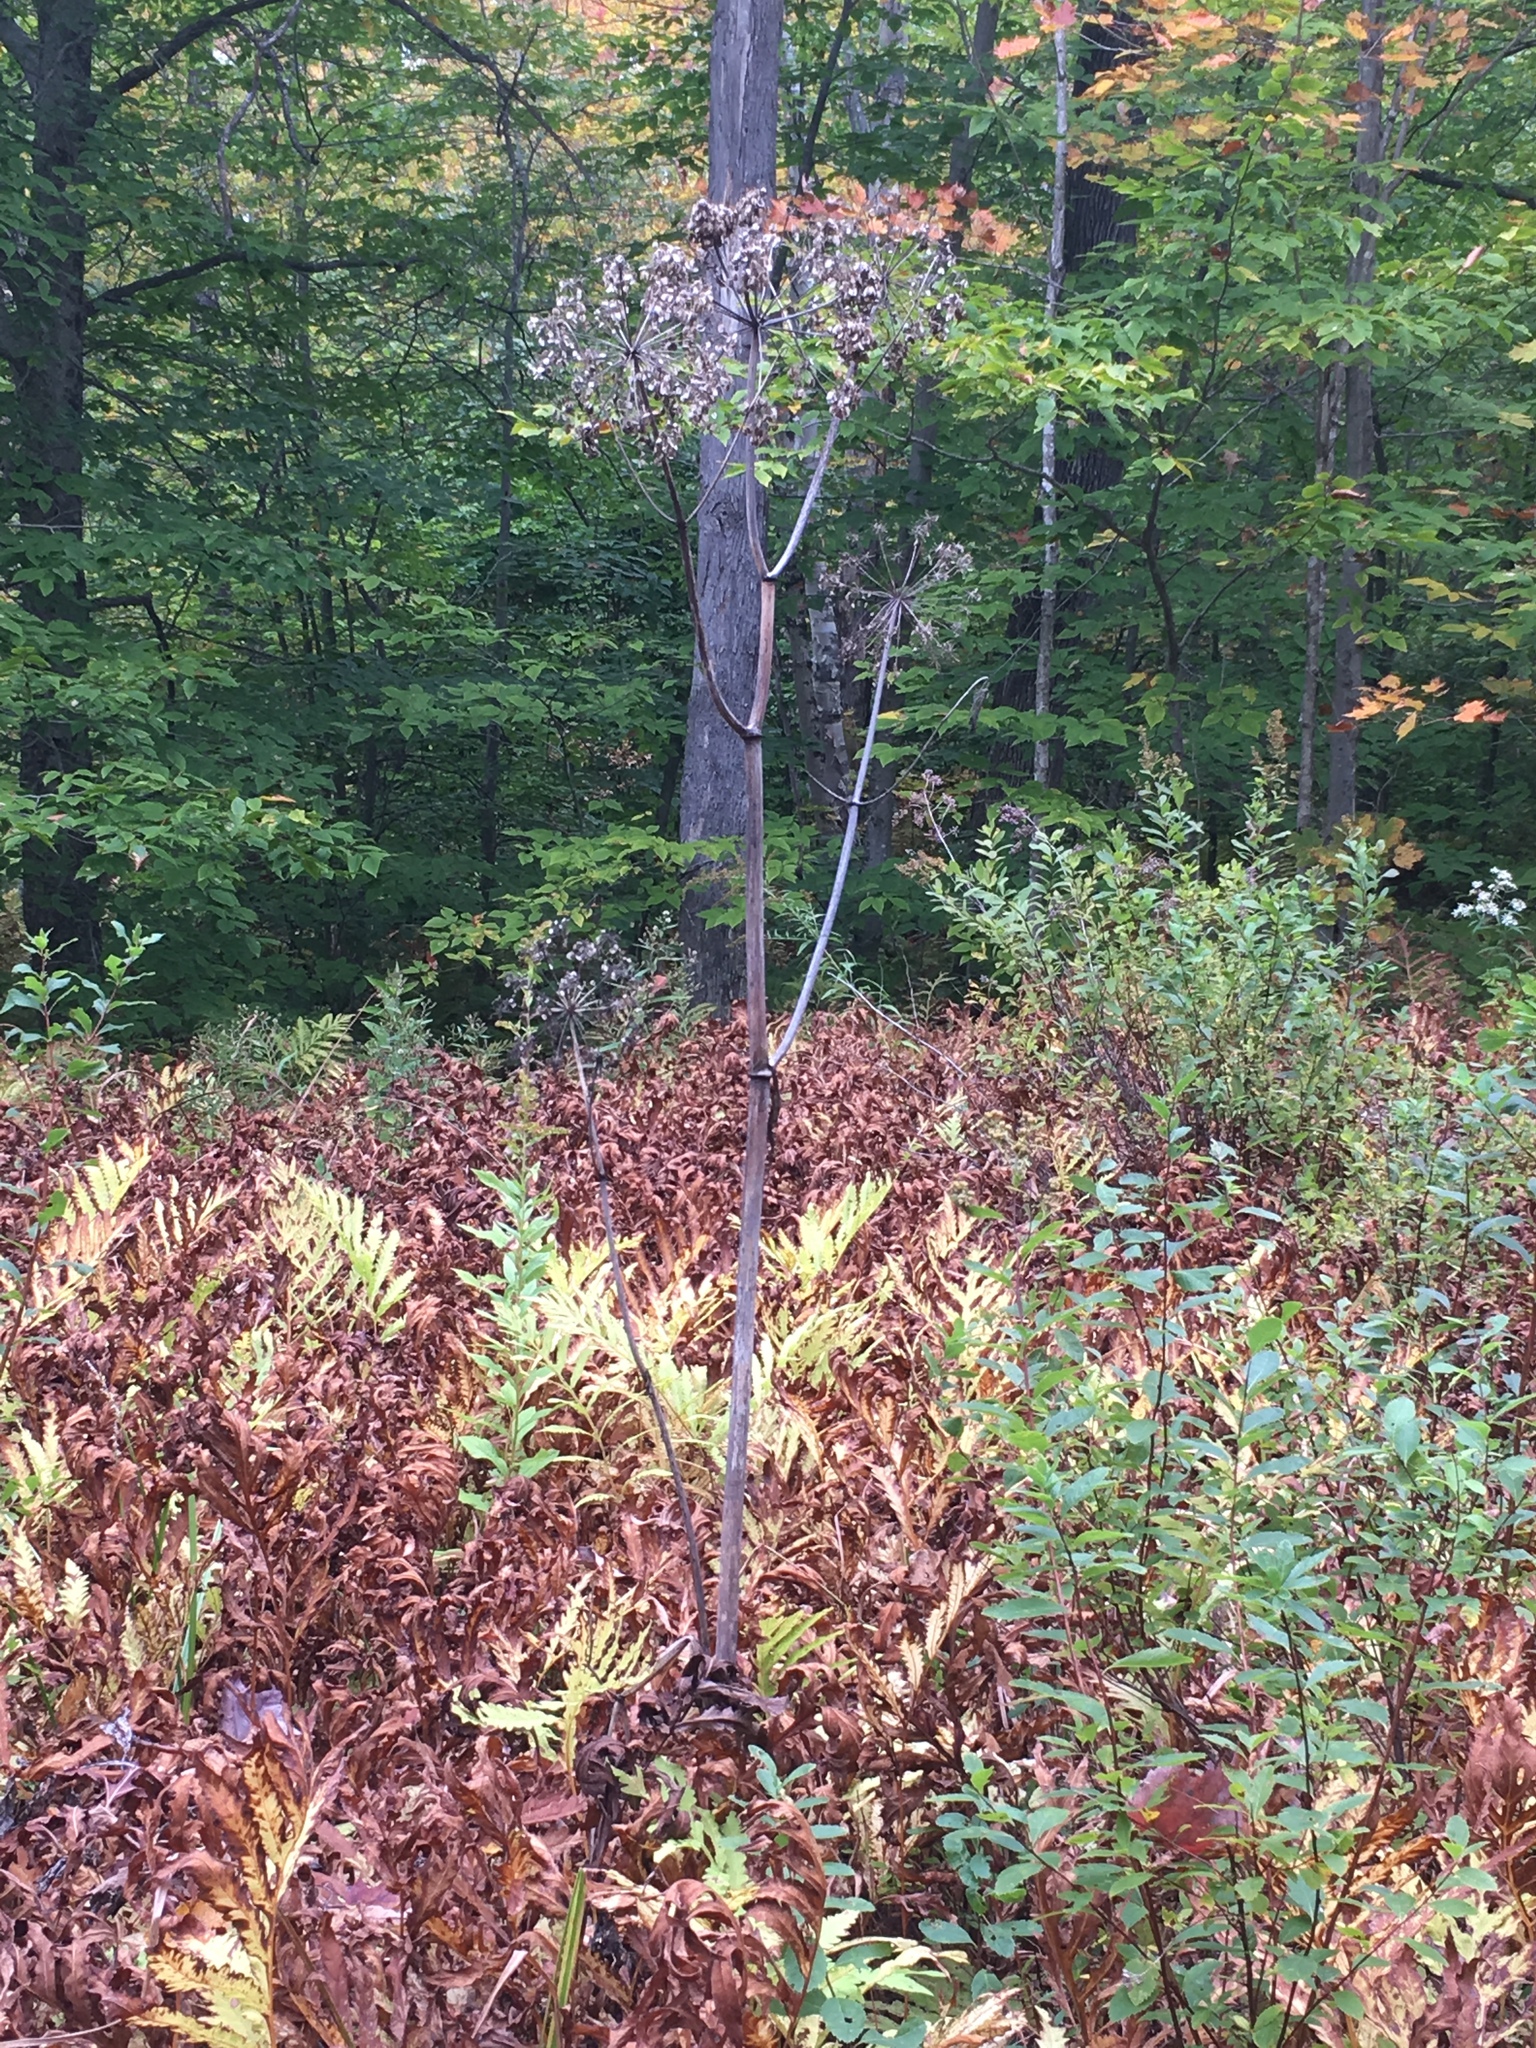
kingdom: Plantae
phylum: Tracheophyta
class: Magnoliopsida
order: Apiales
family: Apiaceae
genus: Angelica
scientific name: Angelica atropurpurea
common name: Great angelica
